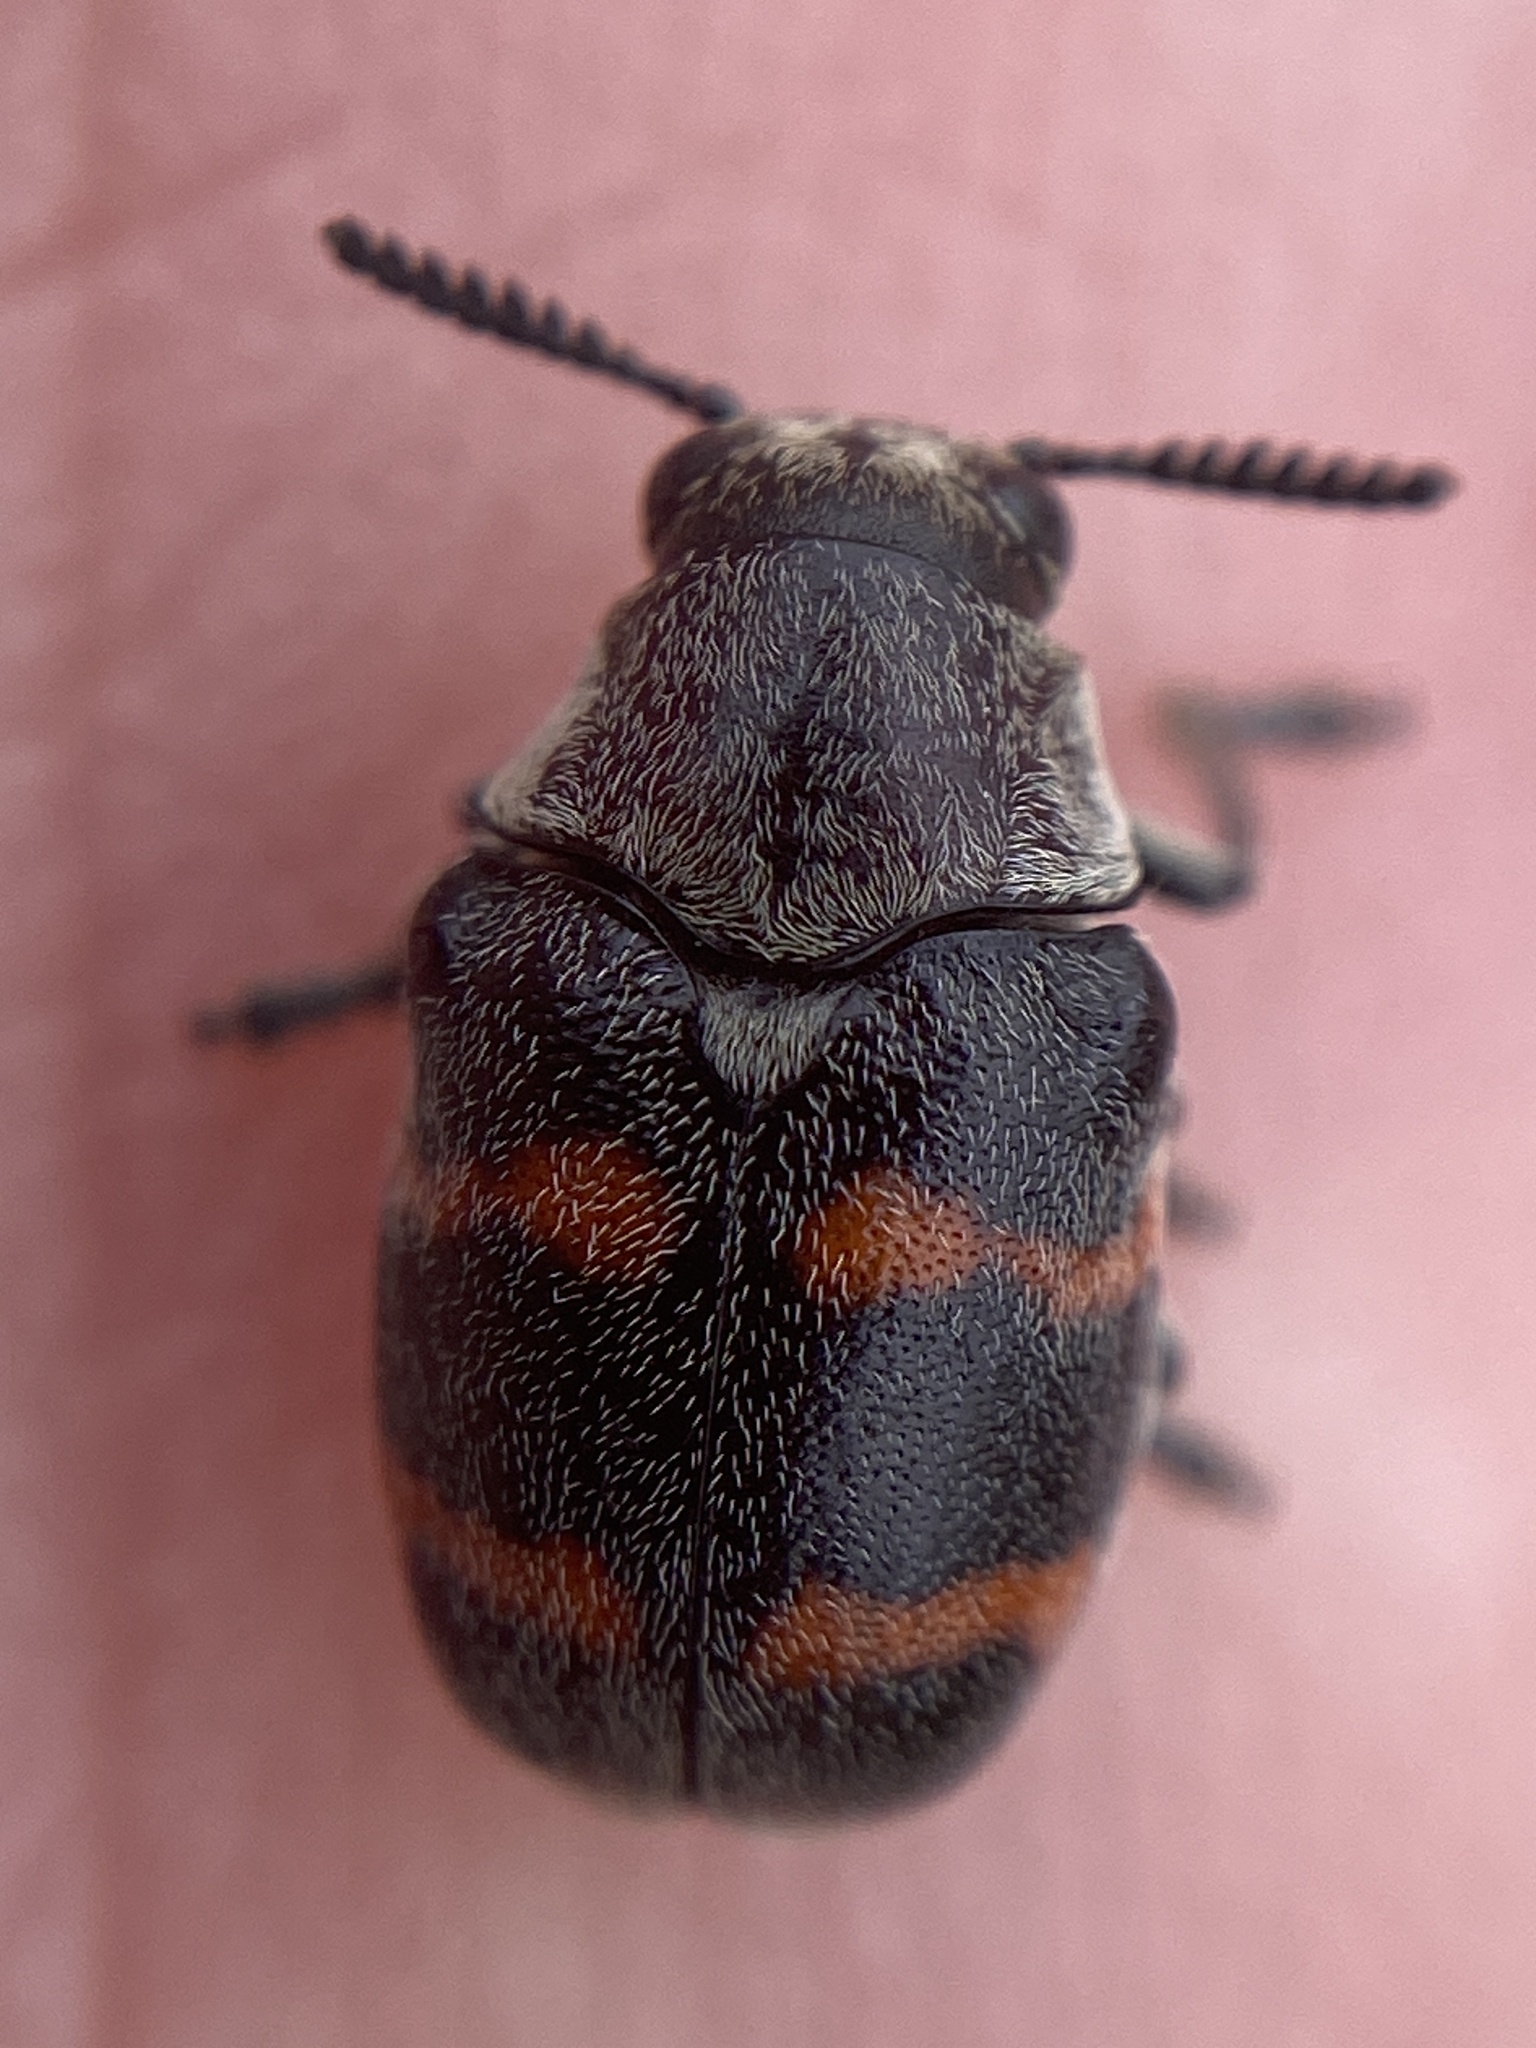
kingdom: Animalia
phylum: Arthropoda
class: Insecta
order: Coleoptera
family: Chrysomelidae
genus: Megalostomis
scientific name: Megalostomis gazella
